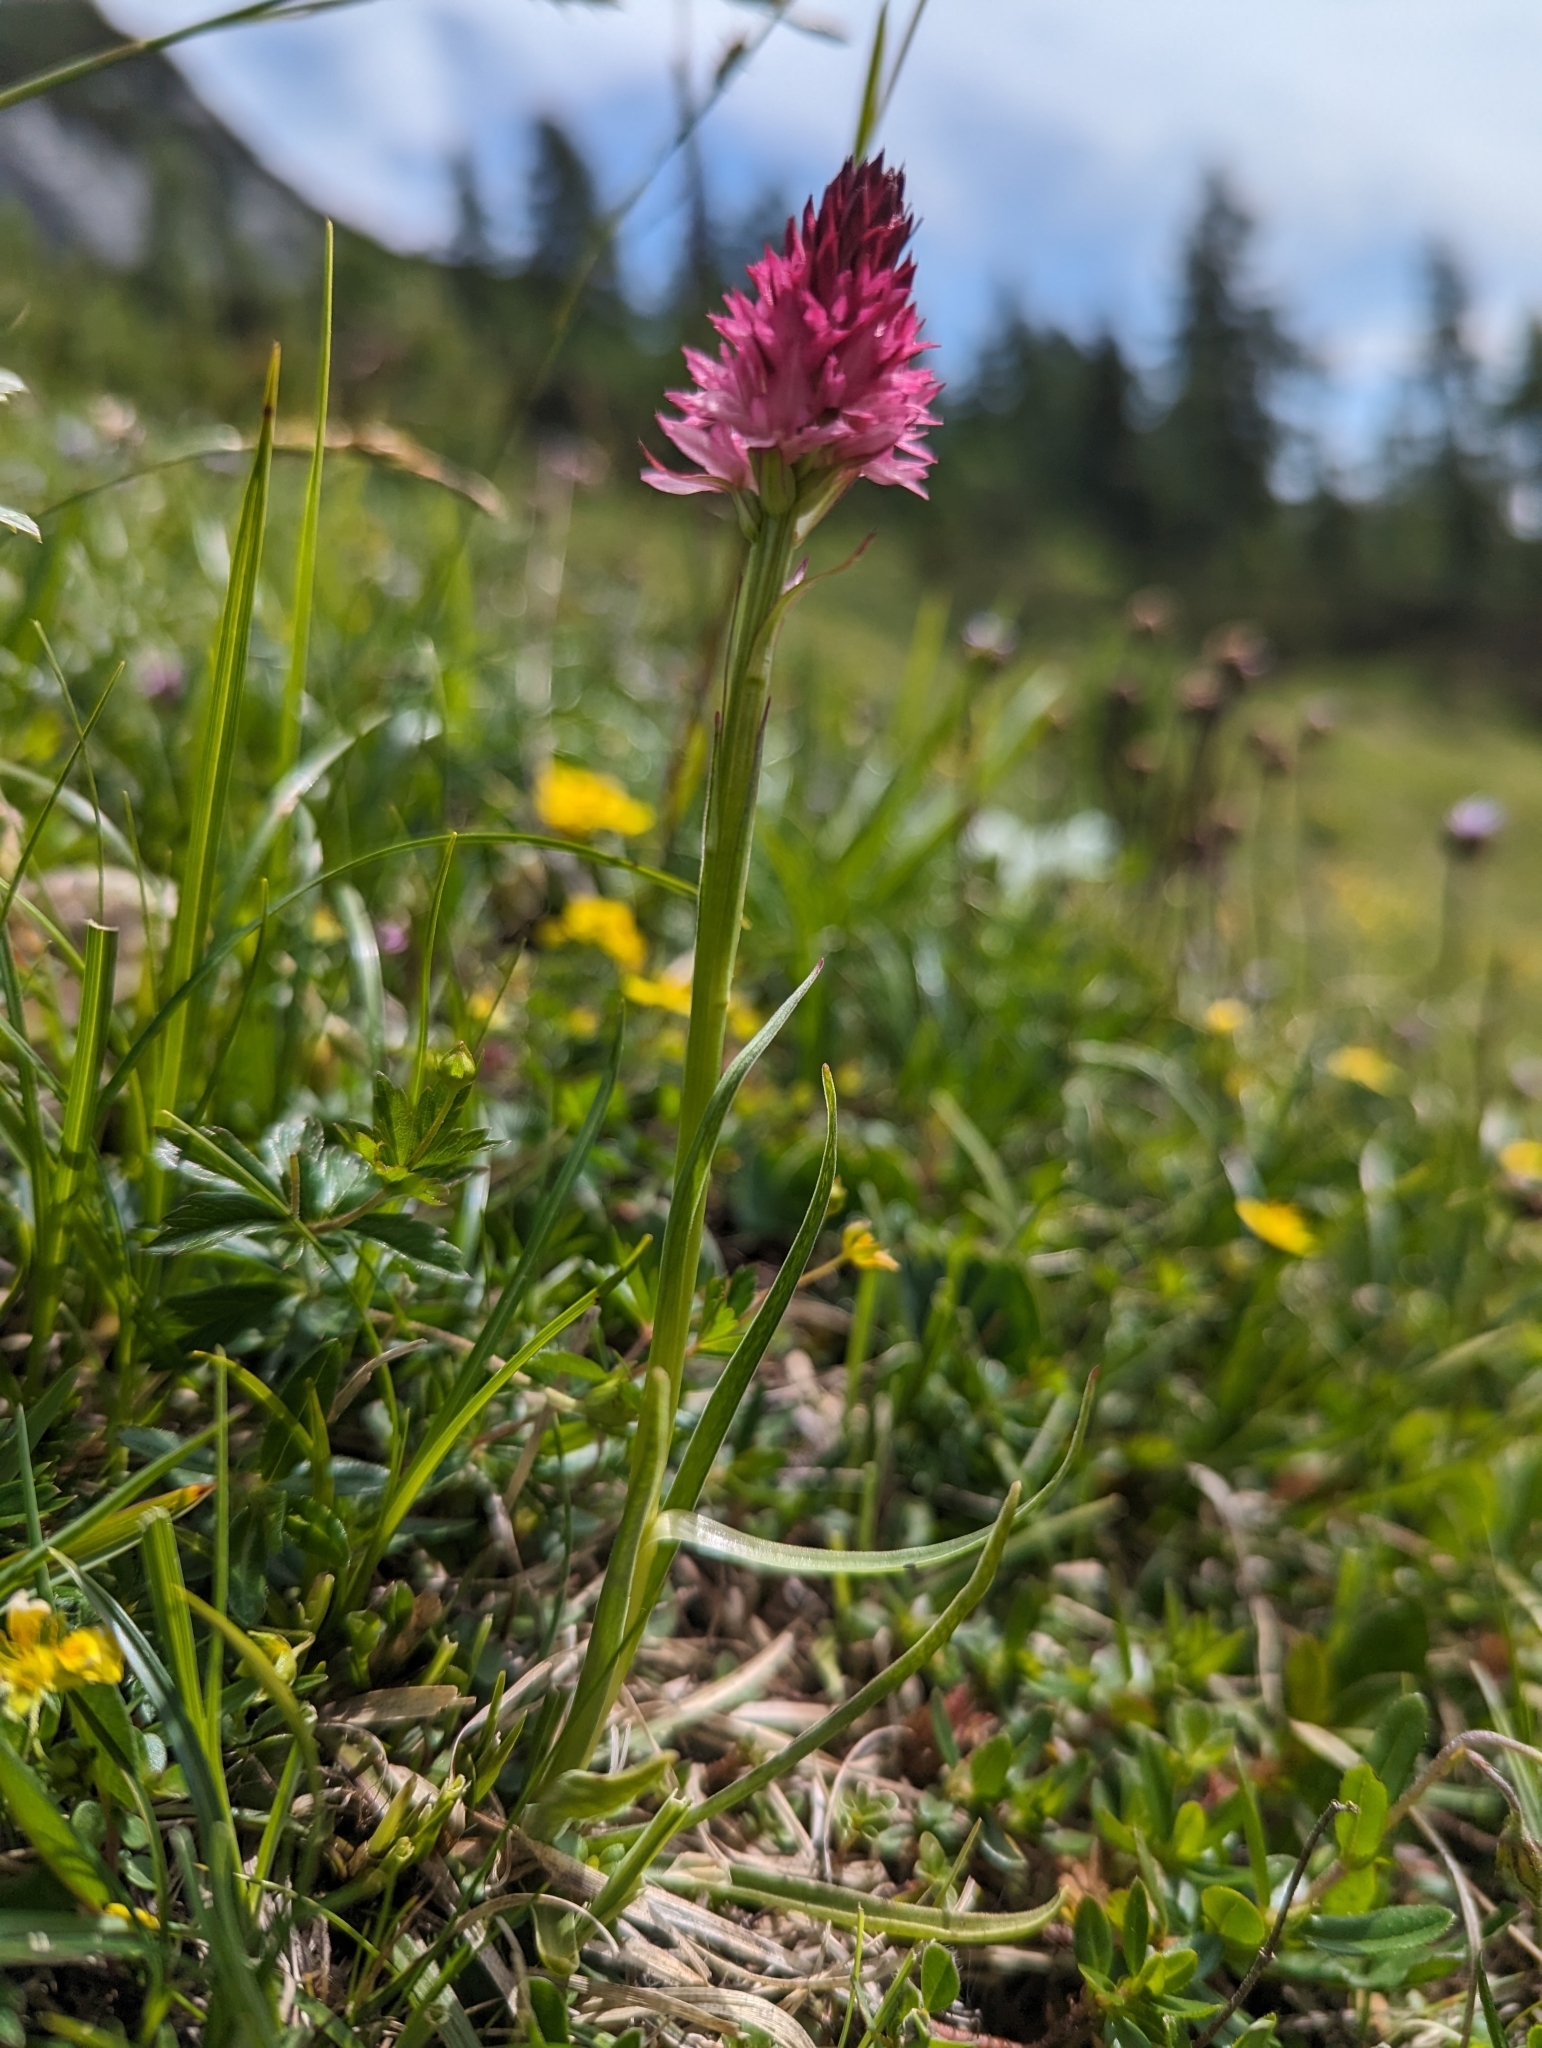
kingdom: Plantae
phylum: Tracheophyta
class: Liliopsida
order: Asparagales
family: Orchidaceae
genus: Gymnadenia
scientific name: Gymnadenia miniata
